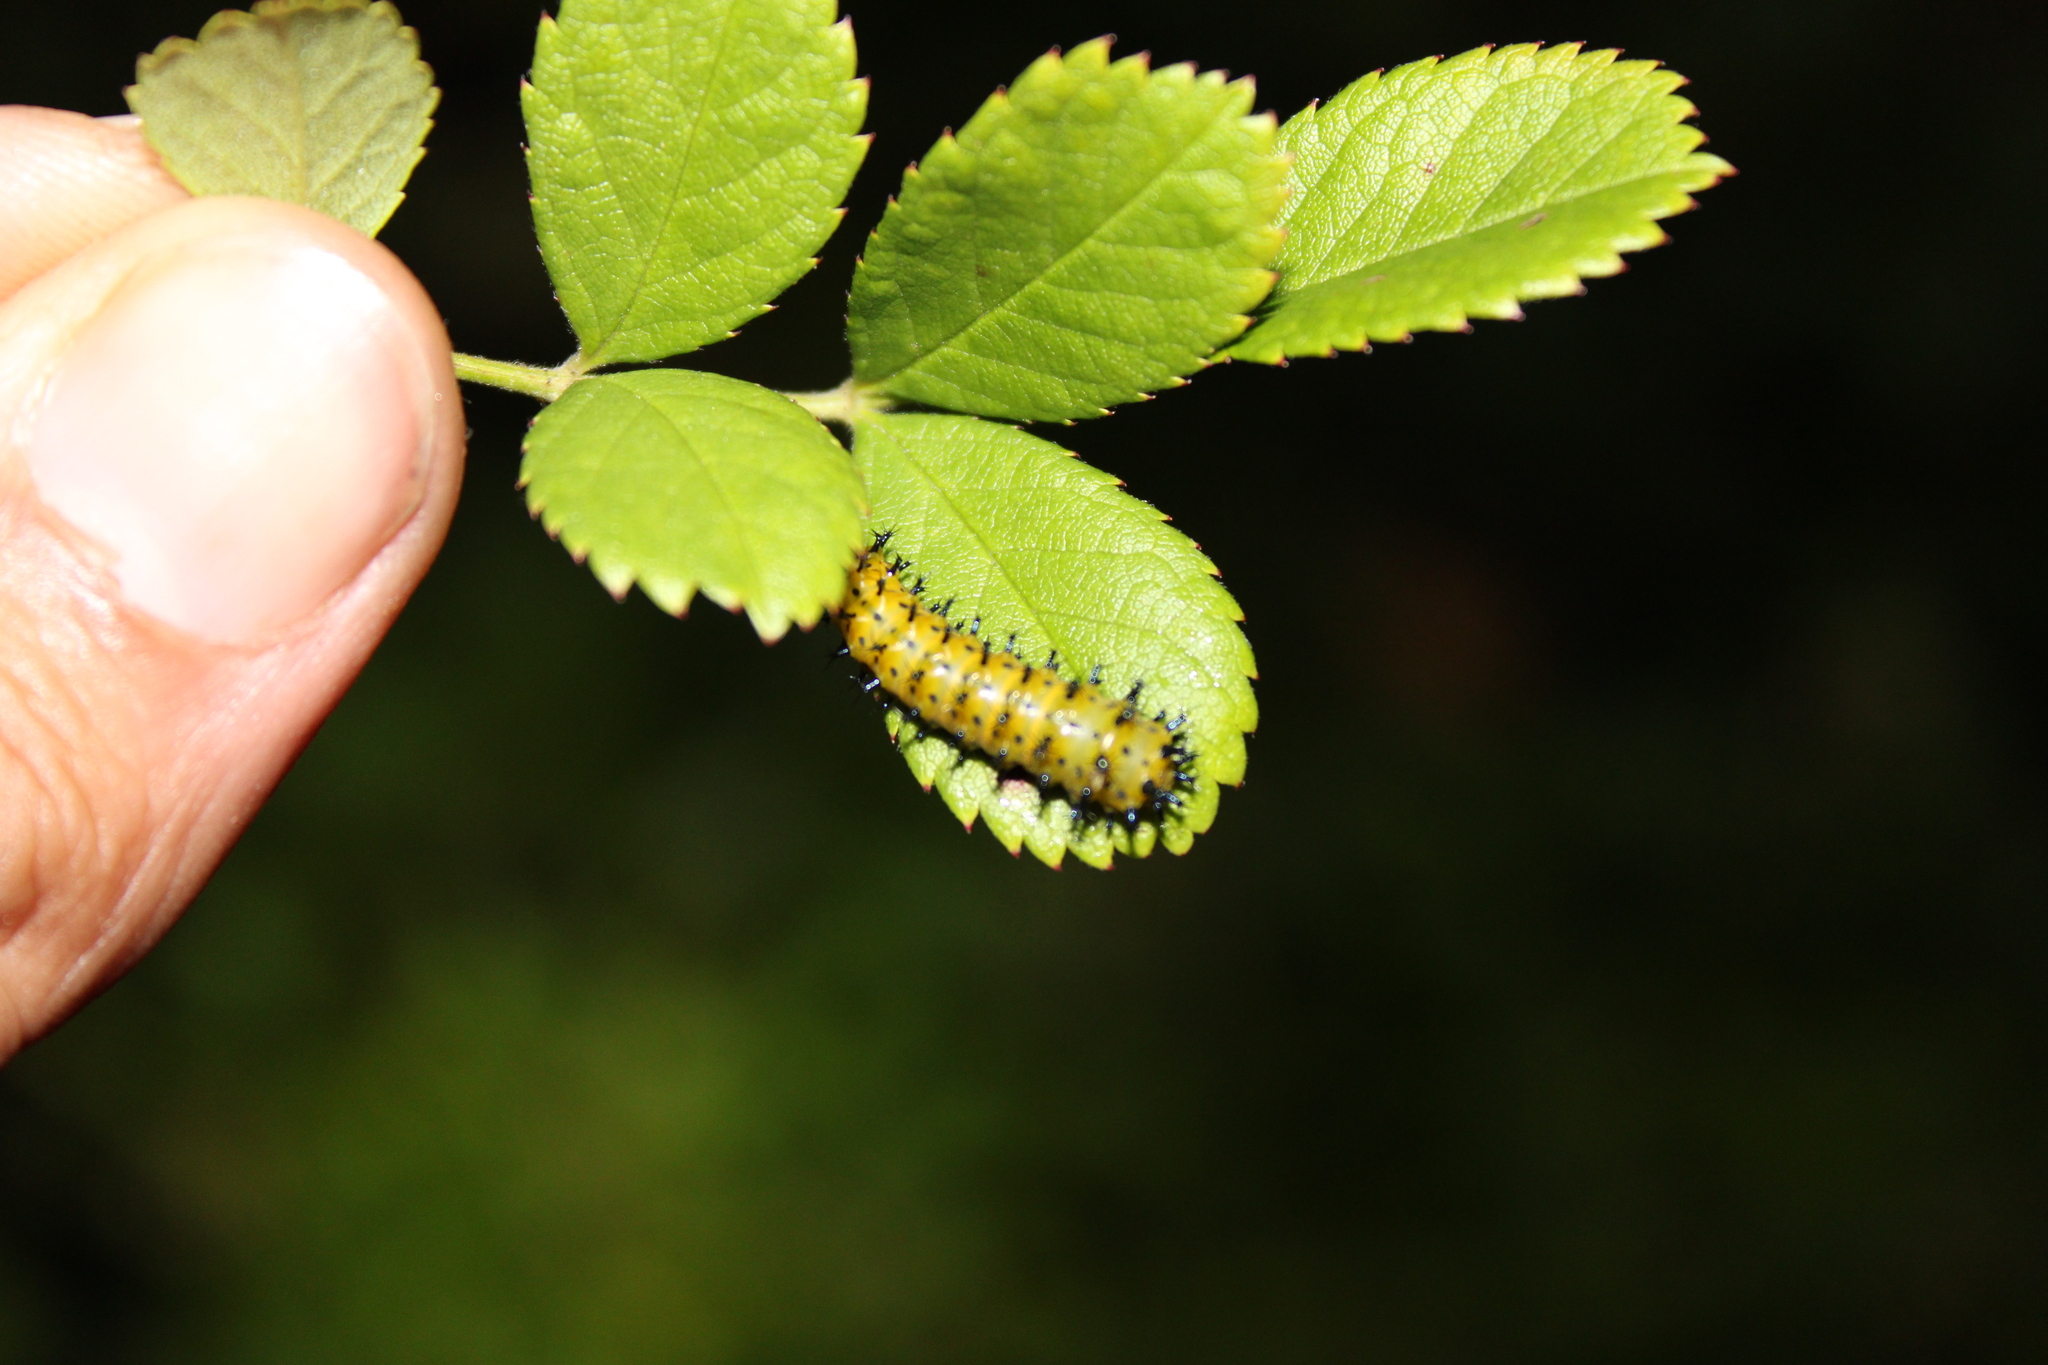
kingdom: Animalia
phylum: Arthropoda
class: Insecta
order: Lepidoptera
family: Saturniidae
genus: Hyalophora
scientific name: Hyalophora cecropia
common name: Cecropia silkmoth
